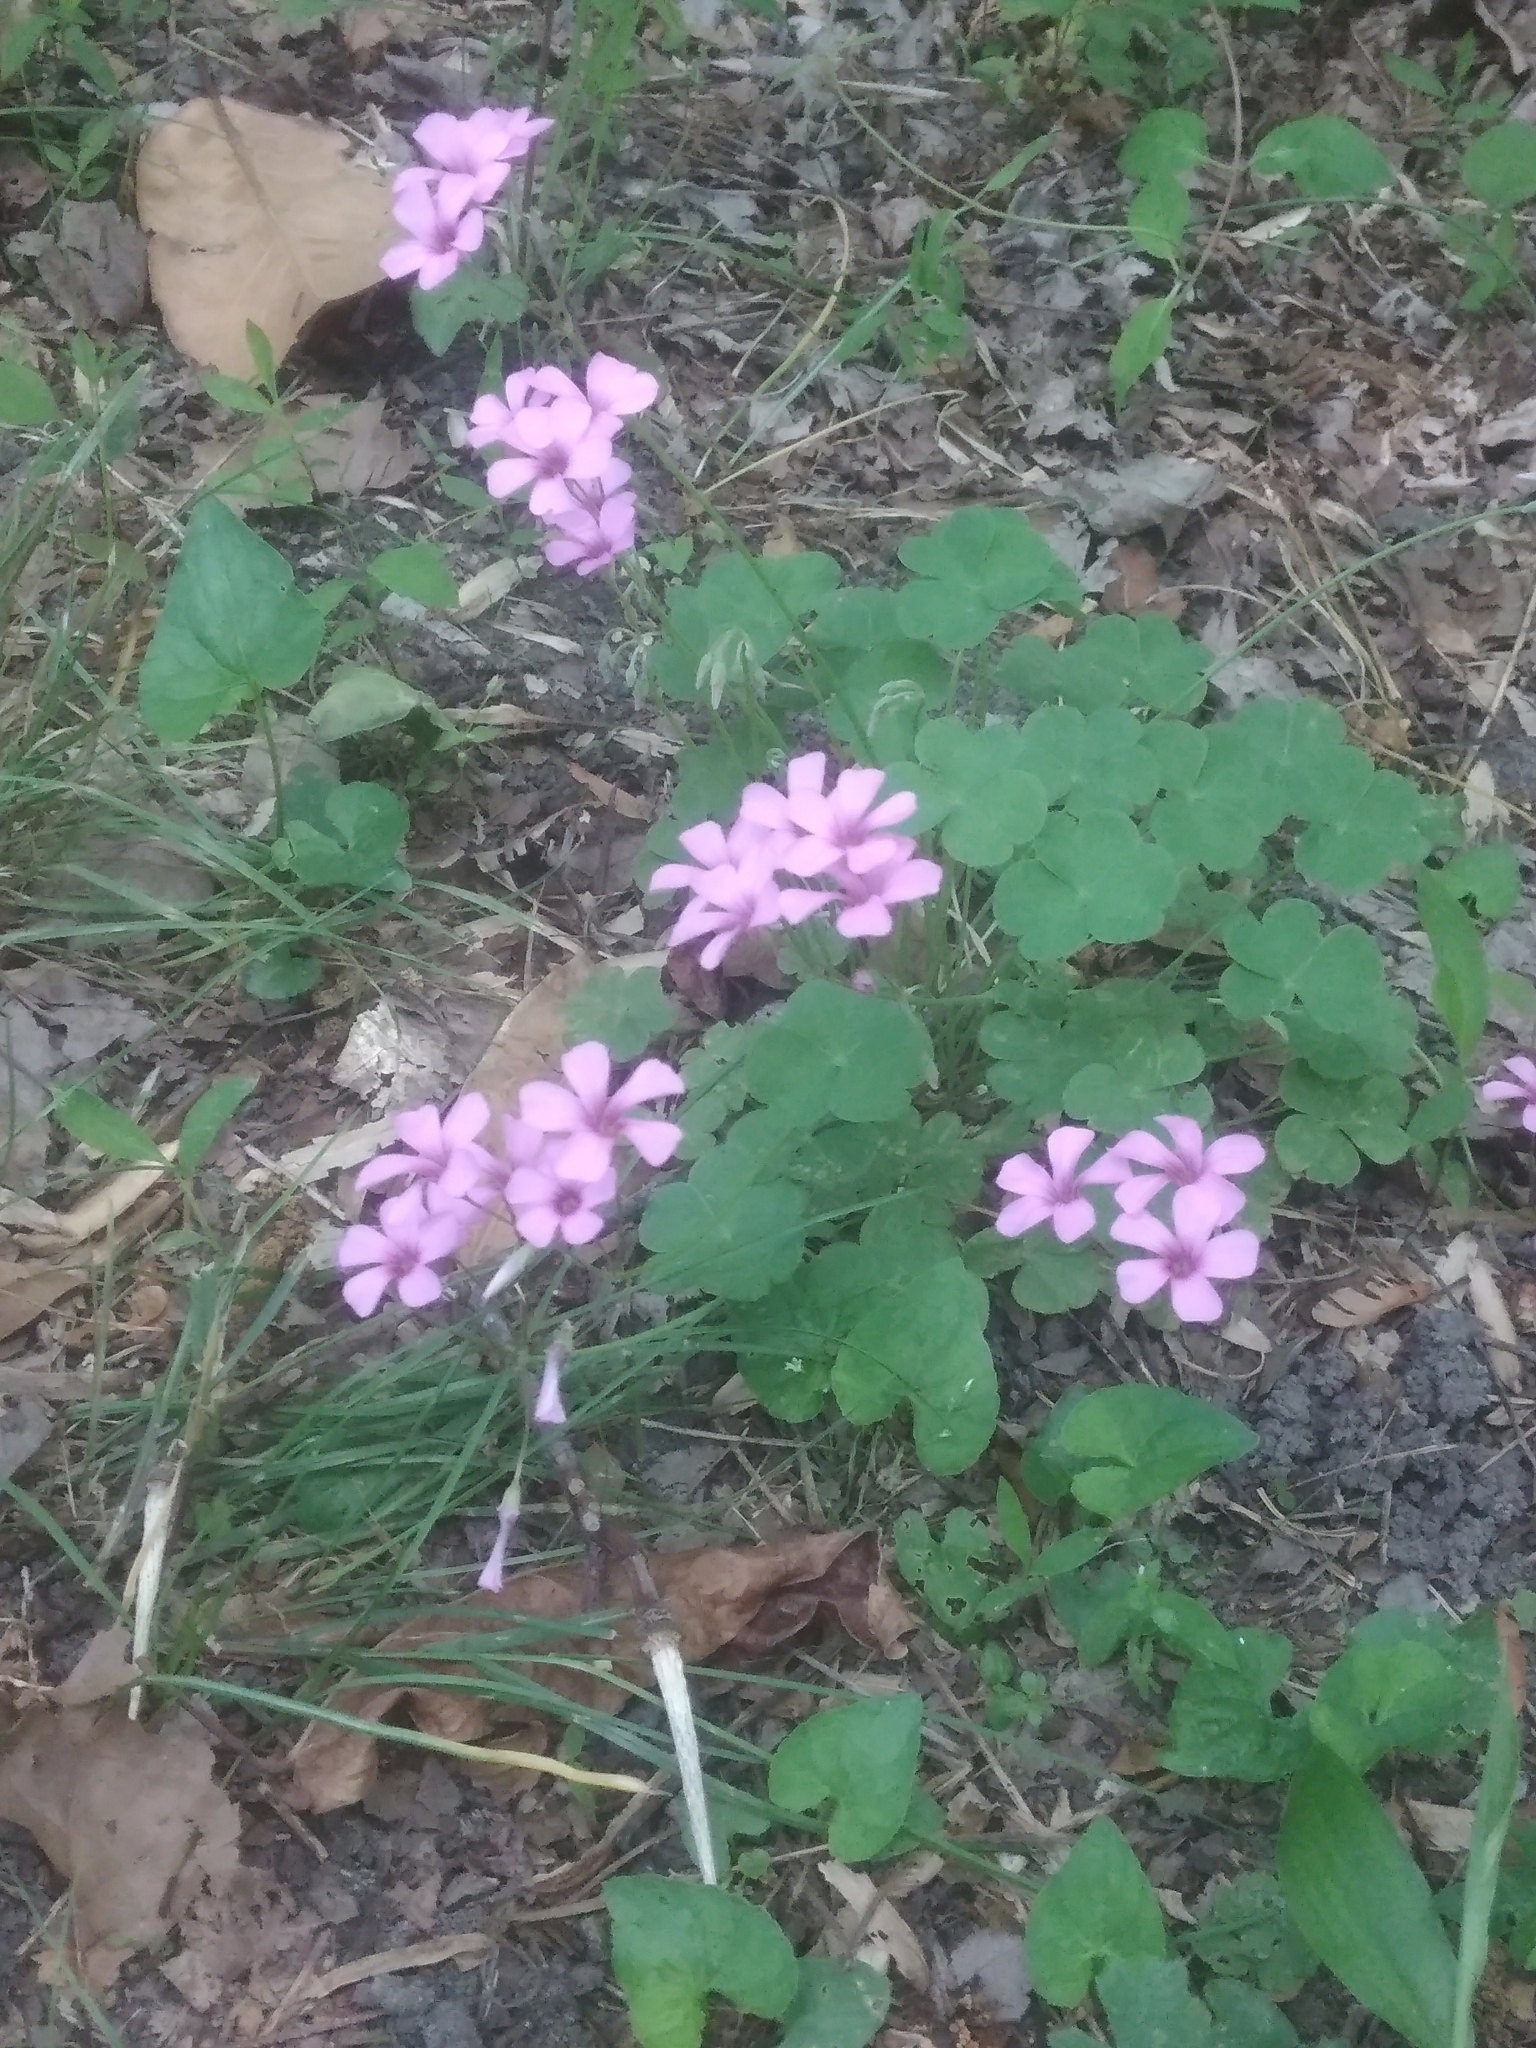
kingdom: Plantae
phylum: Tracheophyta
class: Magnoliopsida
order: Oxalidales
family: Oxalidaceae
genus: Oxalis
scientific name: Oxalis articulata
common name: Pink-sorrel
